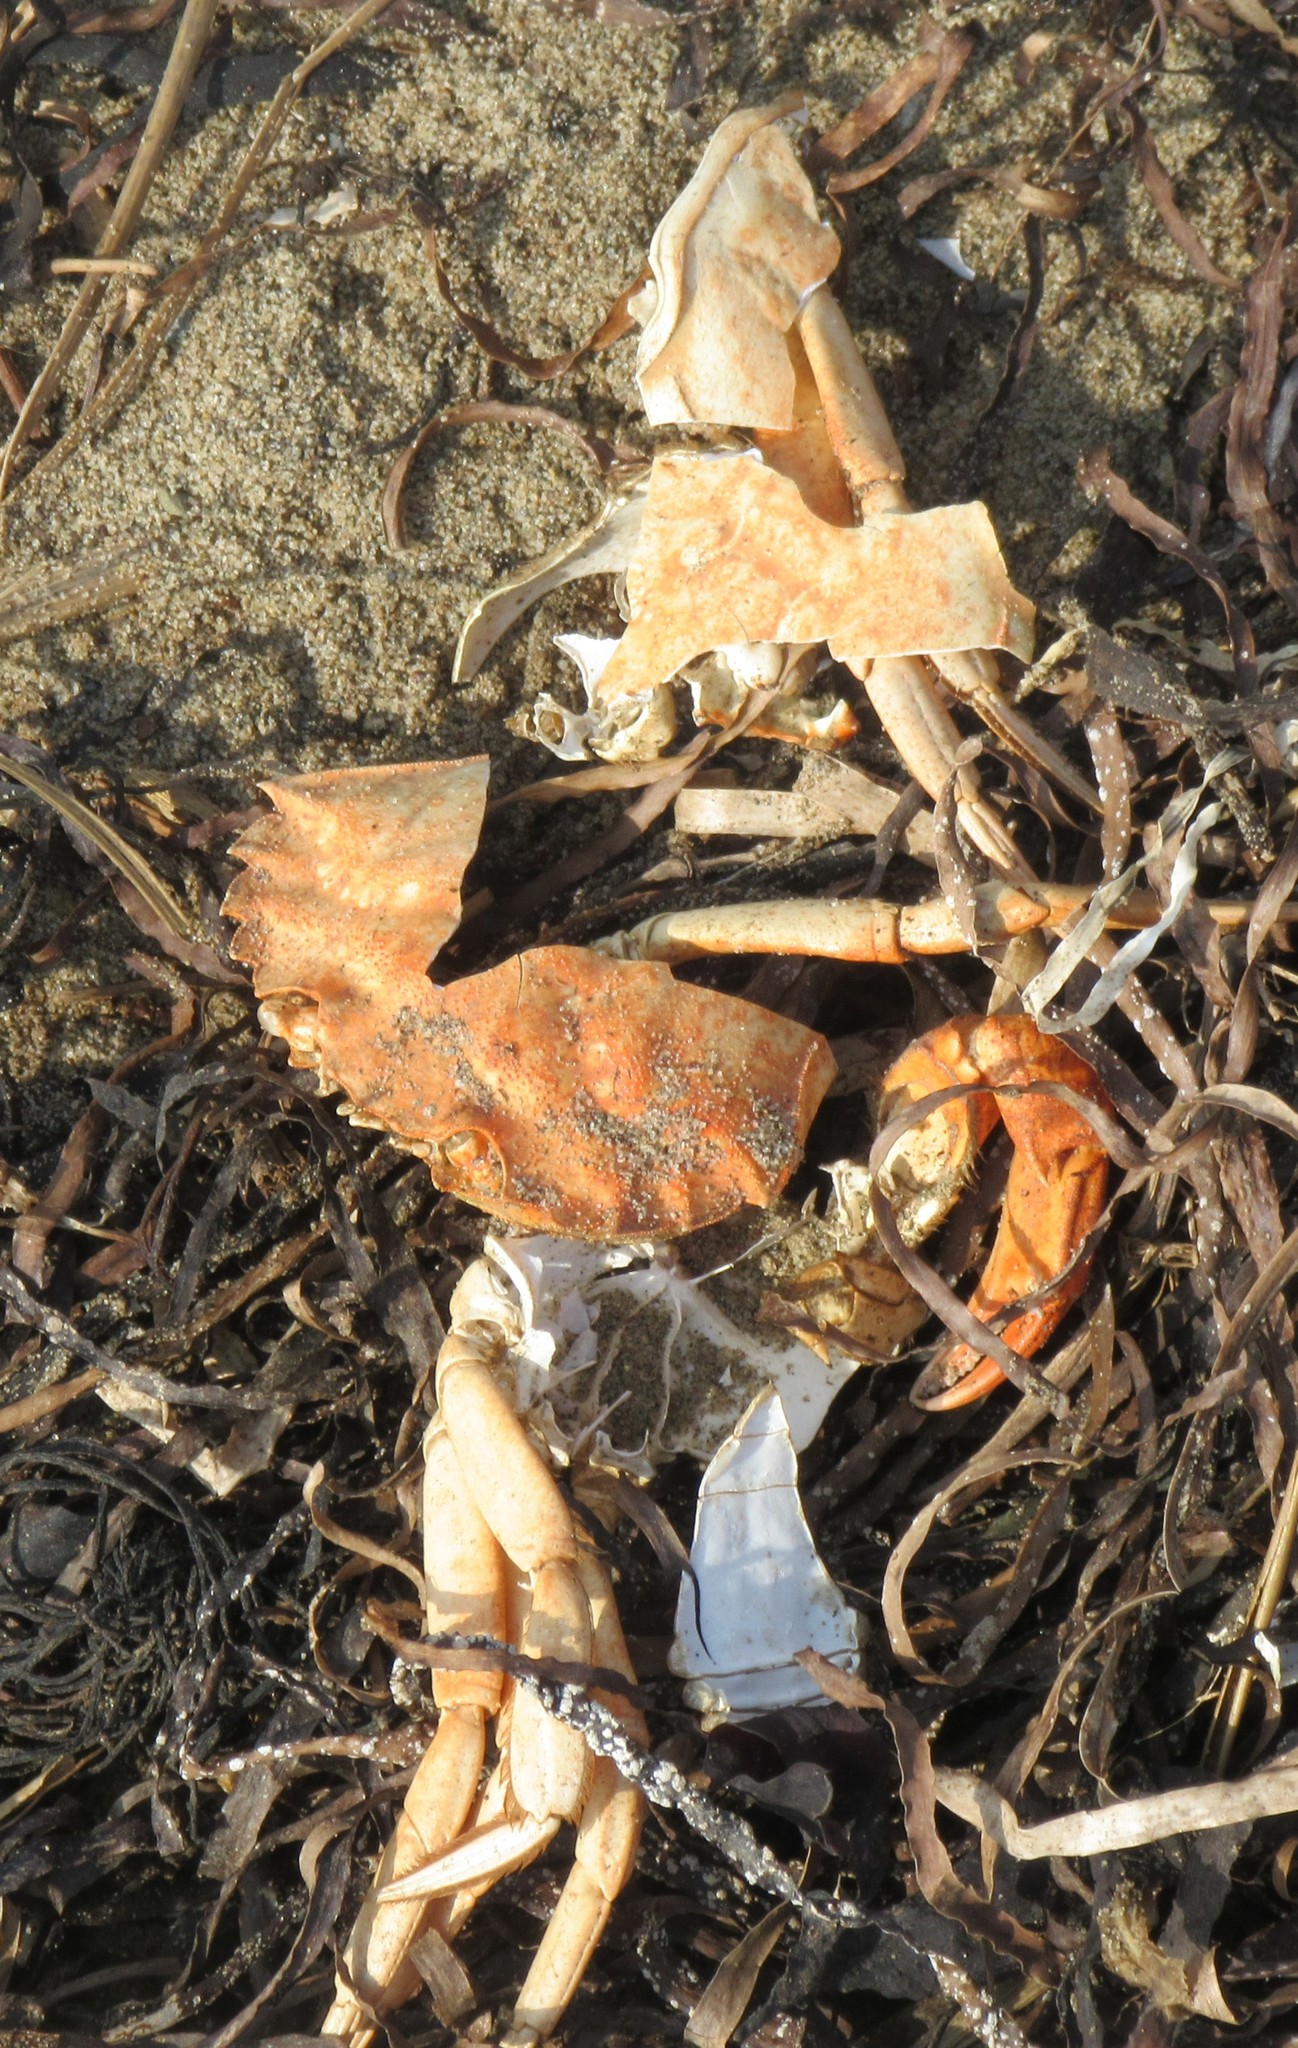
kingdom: Animalia
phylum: Arthropoda
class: Malacostraca
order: Decapoda
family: Carcinidae
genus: Carcinus
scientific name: Carcinus maenas
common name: European green crab
